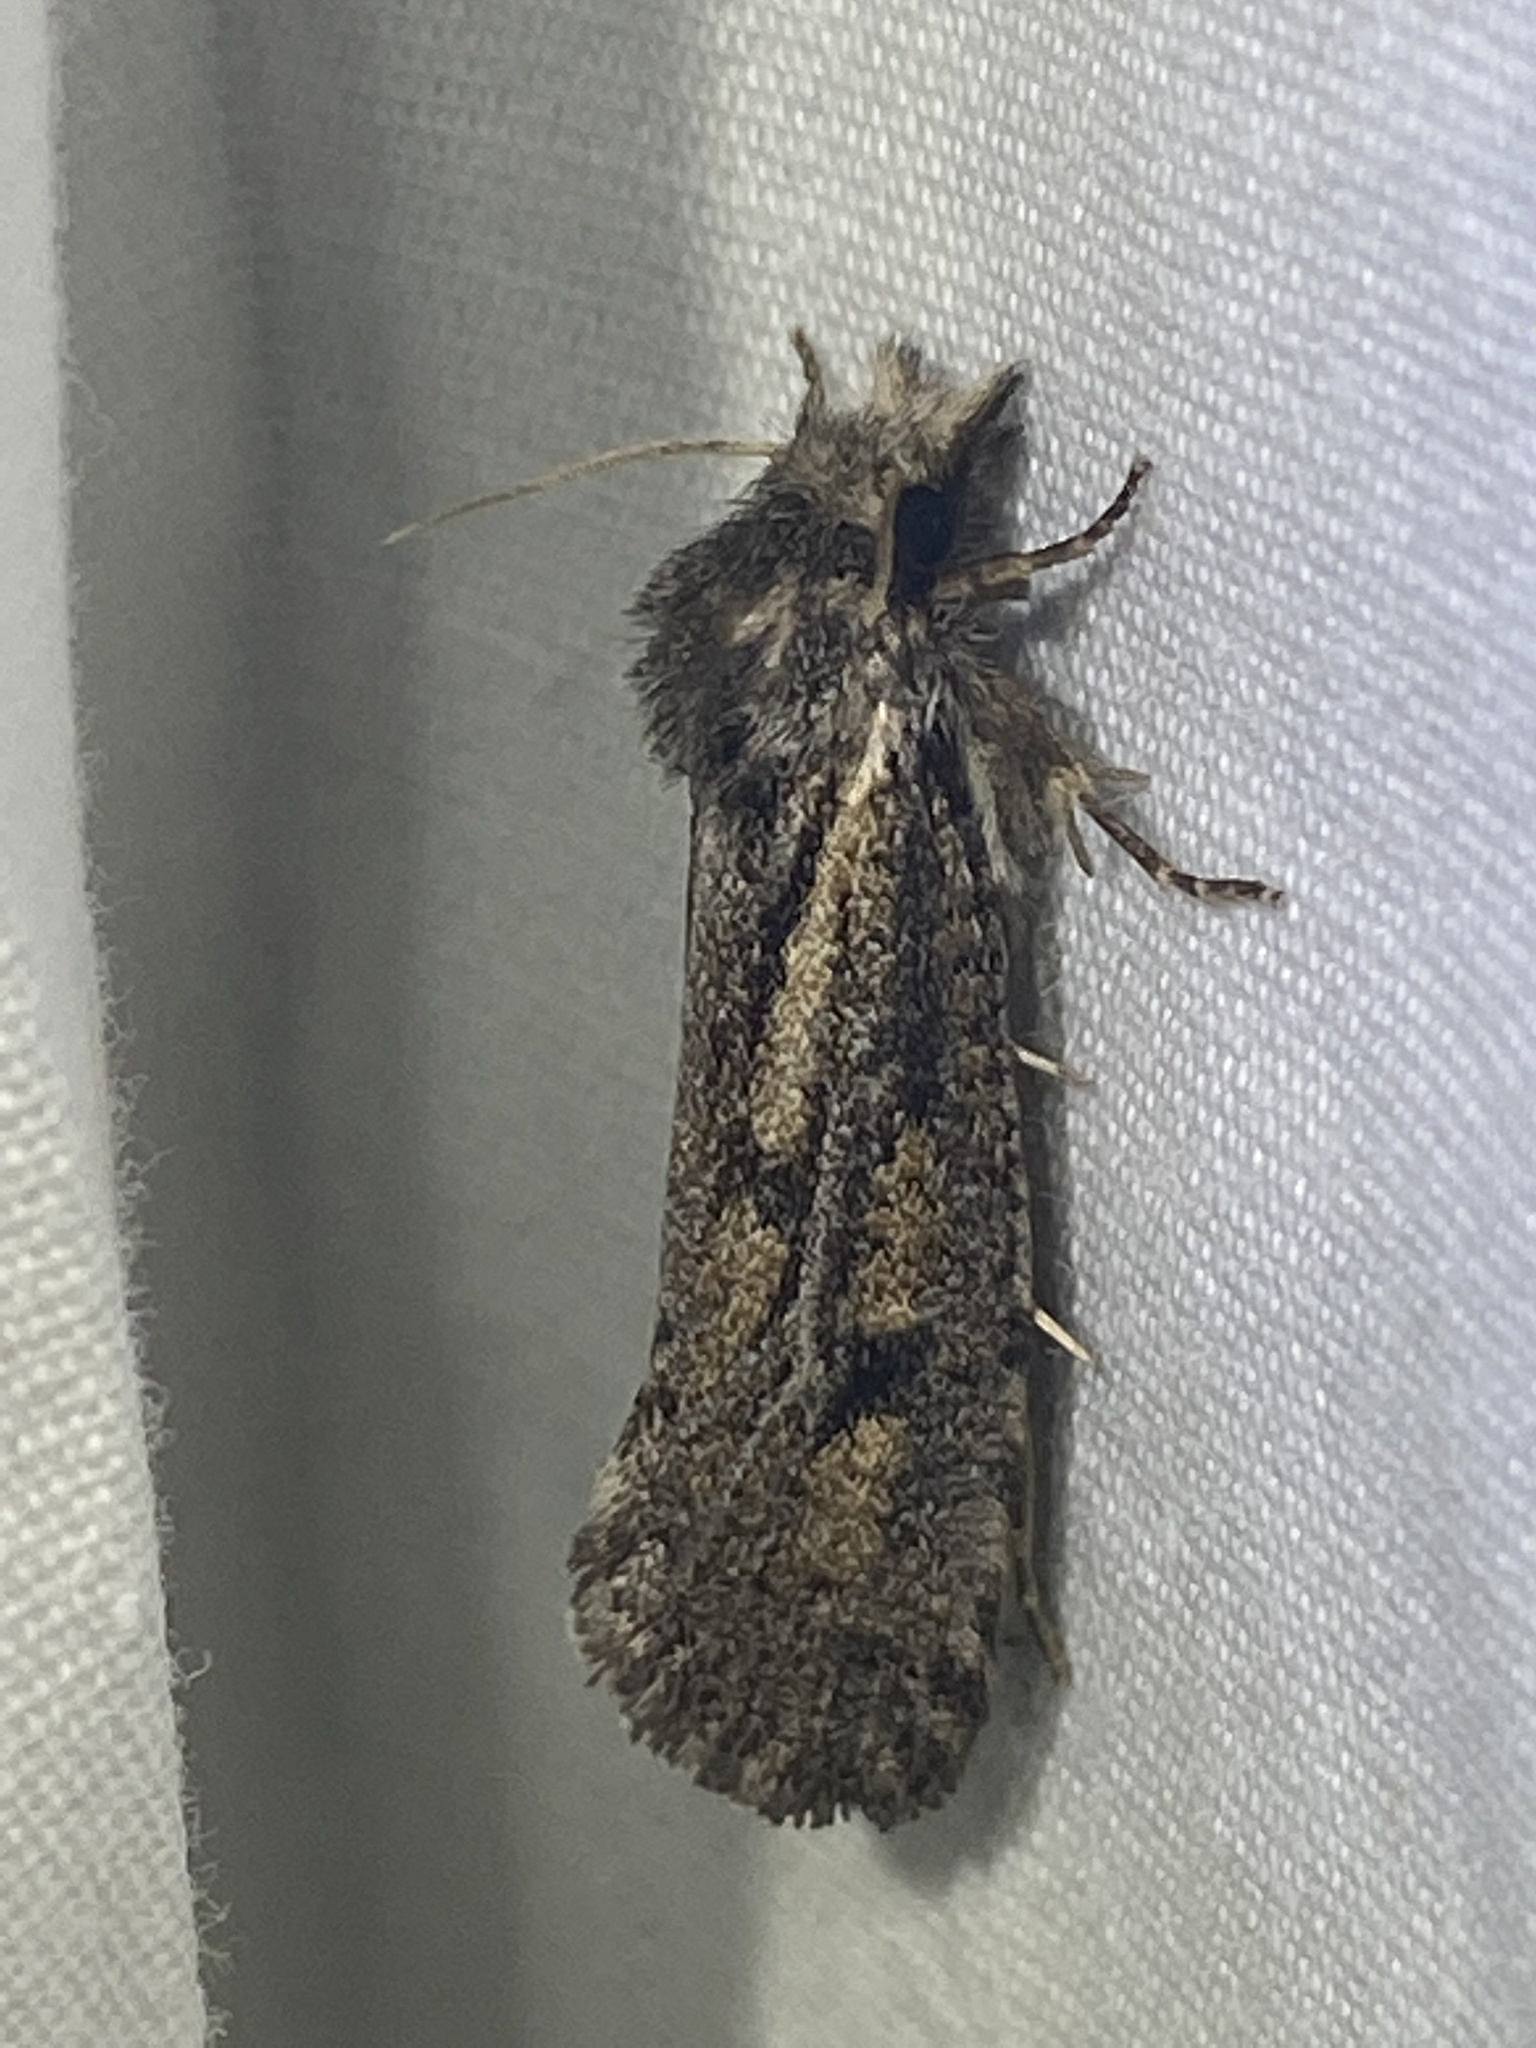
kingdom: Animalia
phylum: Arthropoda
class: Insecta
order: Lepidoptera
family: Tineidae
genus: Acrolophus
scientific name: Acrolophus popeanella
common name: Clemens' grass tubeworm moth
